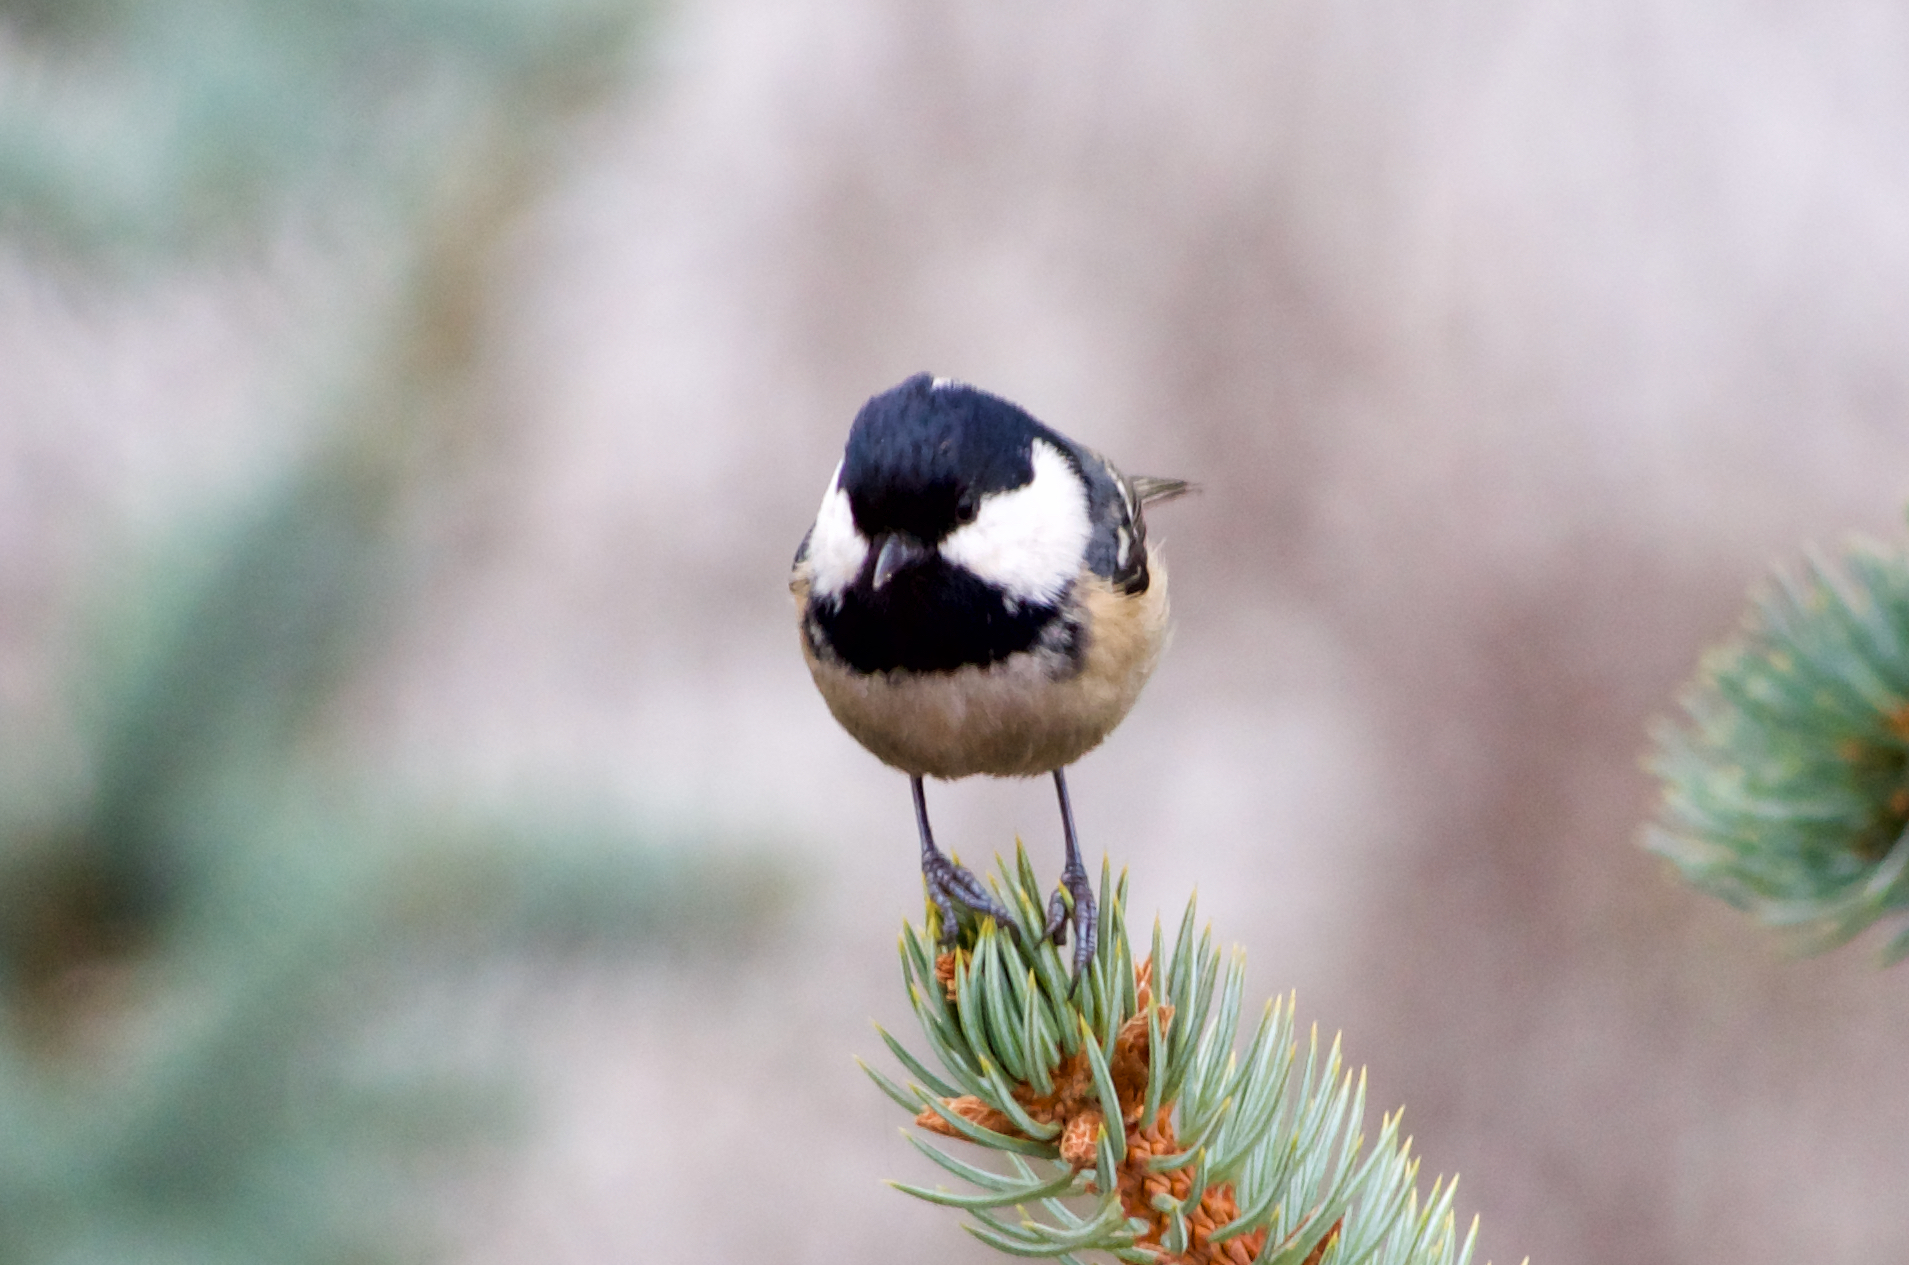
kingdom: Animalia
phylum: Chordata
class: Aves
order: Passeriformes
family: Paridae
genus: Periparus
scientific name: Periparus ater
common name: Coal tit
